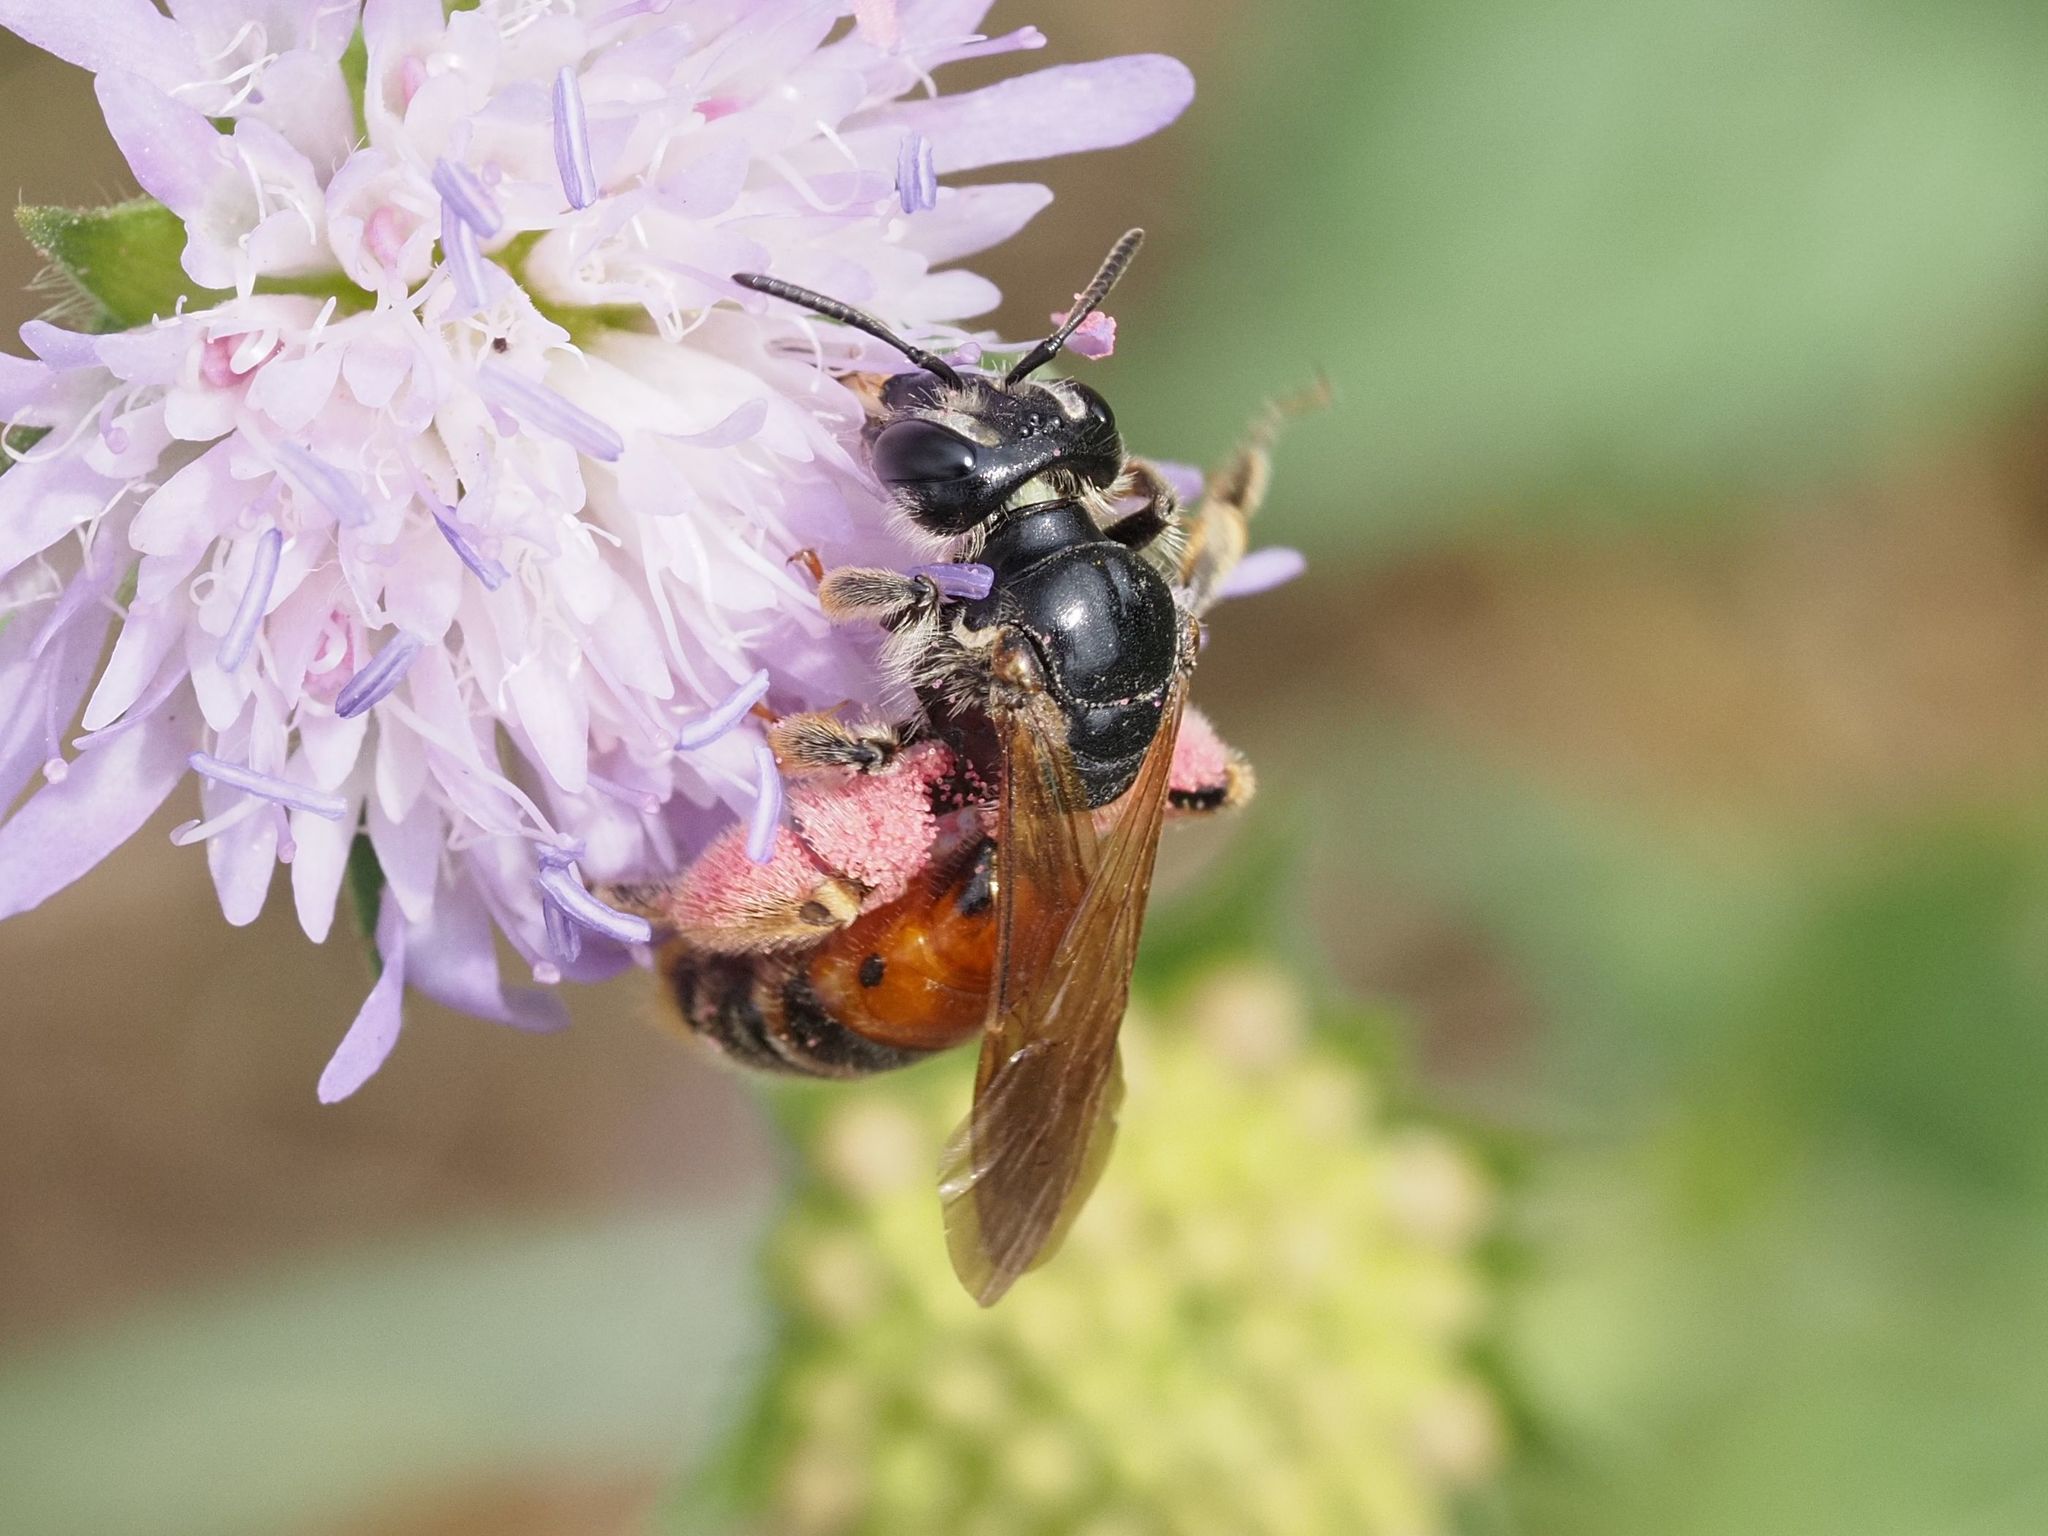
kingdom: Animalia
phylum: Arthropoda
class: Insecta
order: Hymenoptera
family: Andrenidae
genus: Andrena
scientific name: Andrena hattorfiana
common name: Large scabious mining bee
